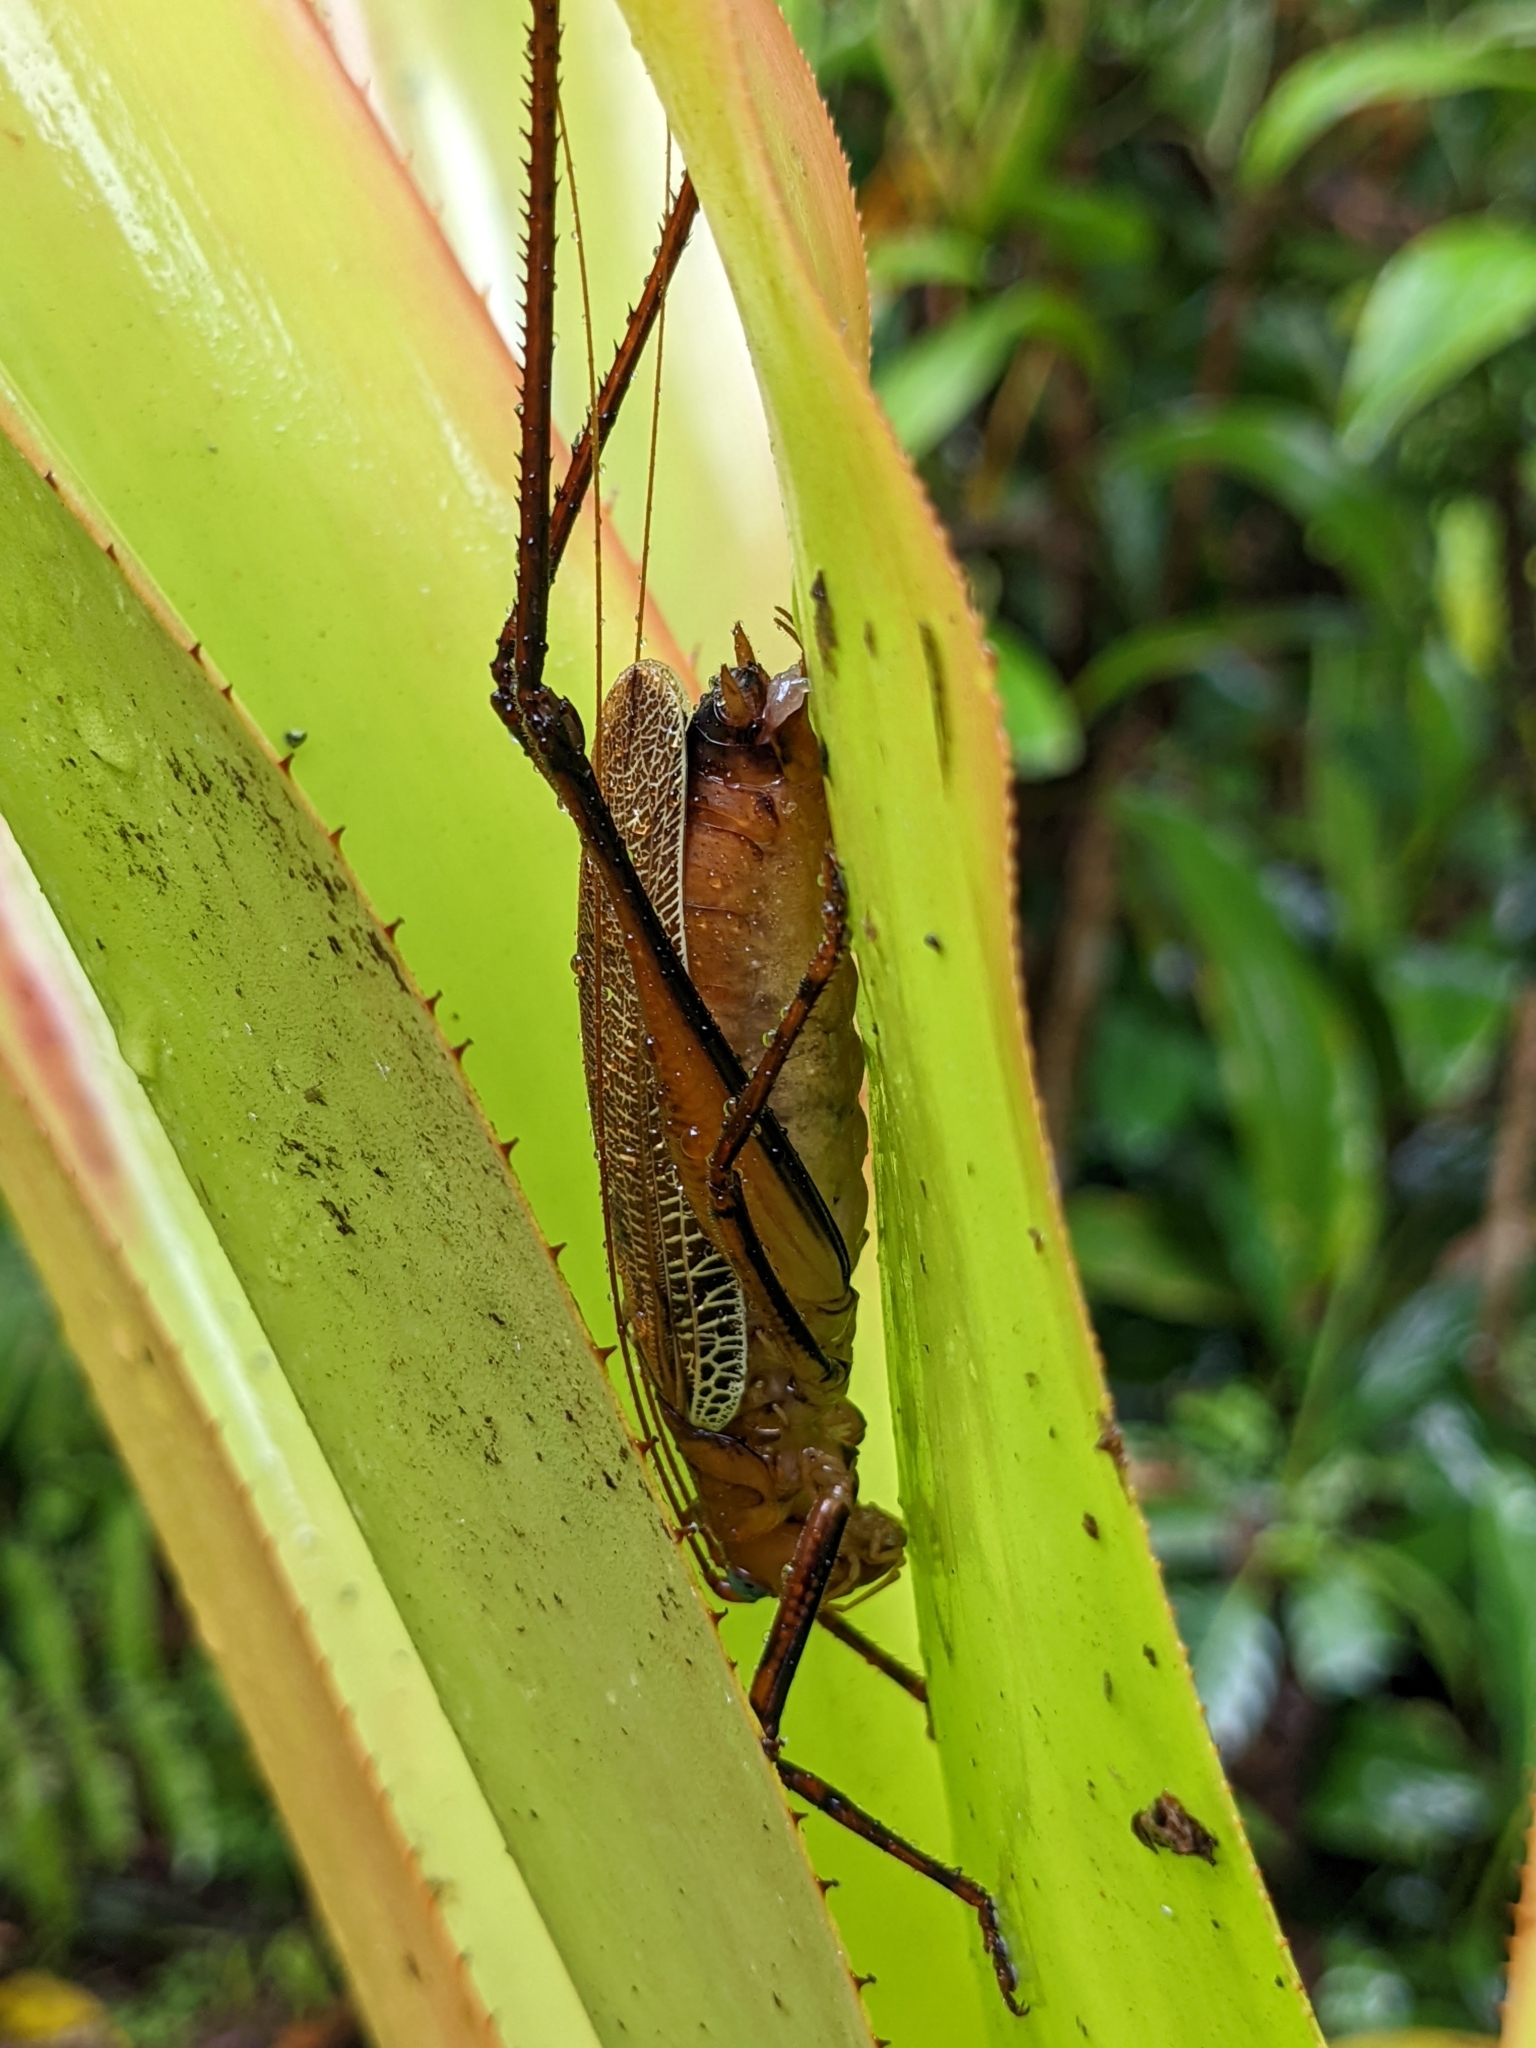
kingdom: Animalia
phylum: Arthropoda
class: Insecta
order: Orthoptera
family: Tettigoniidae
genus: Ischnomela
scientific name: Ischnomela pulchripennis
